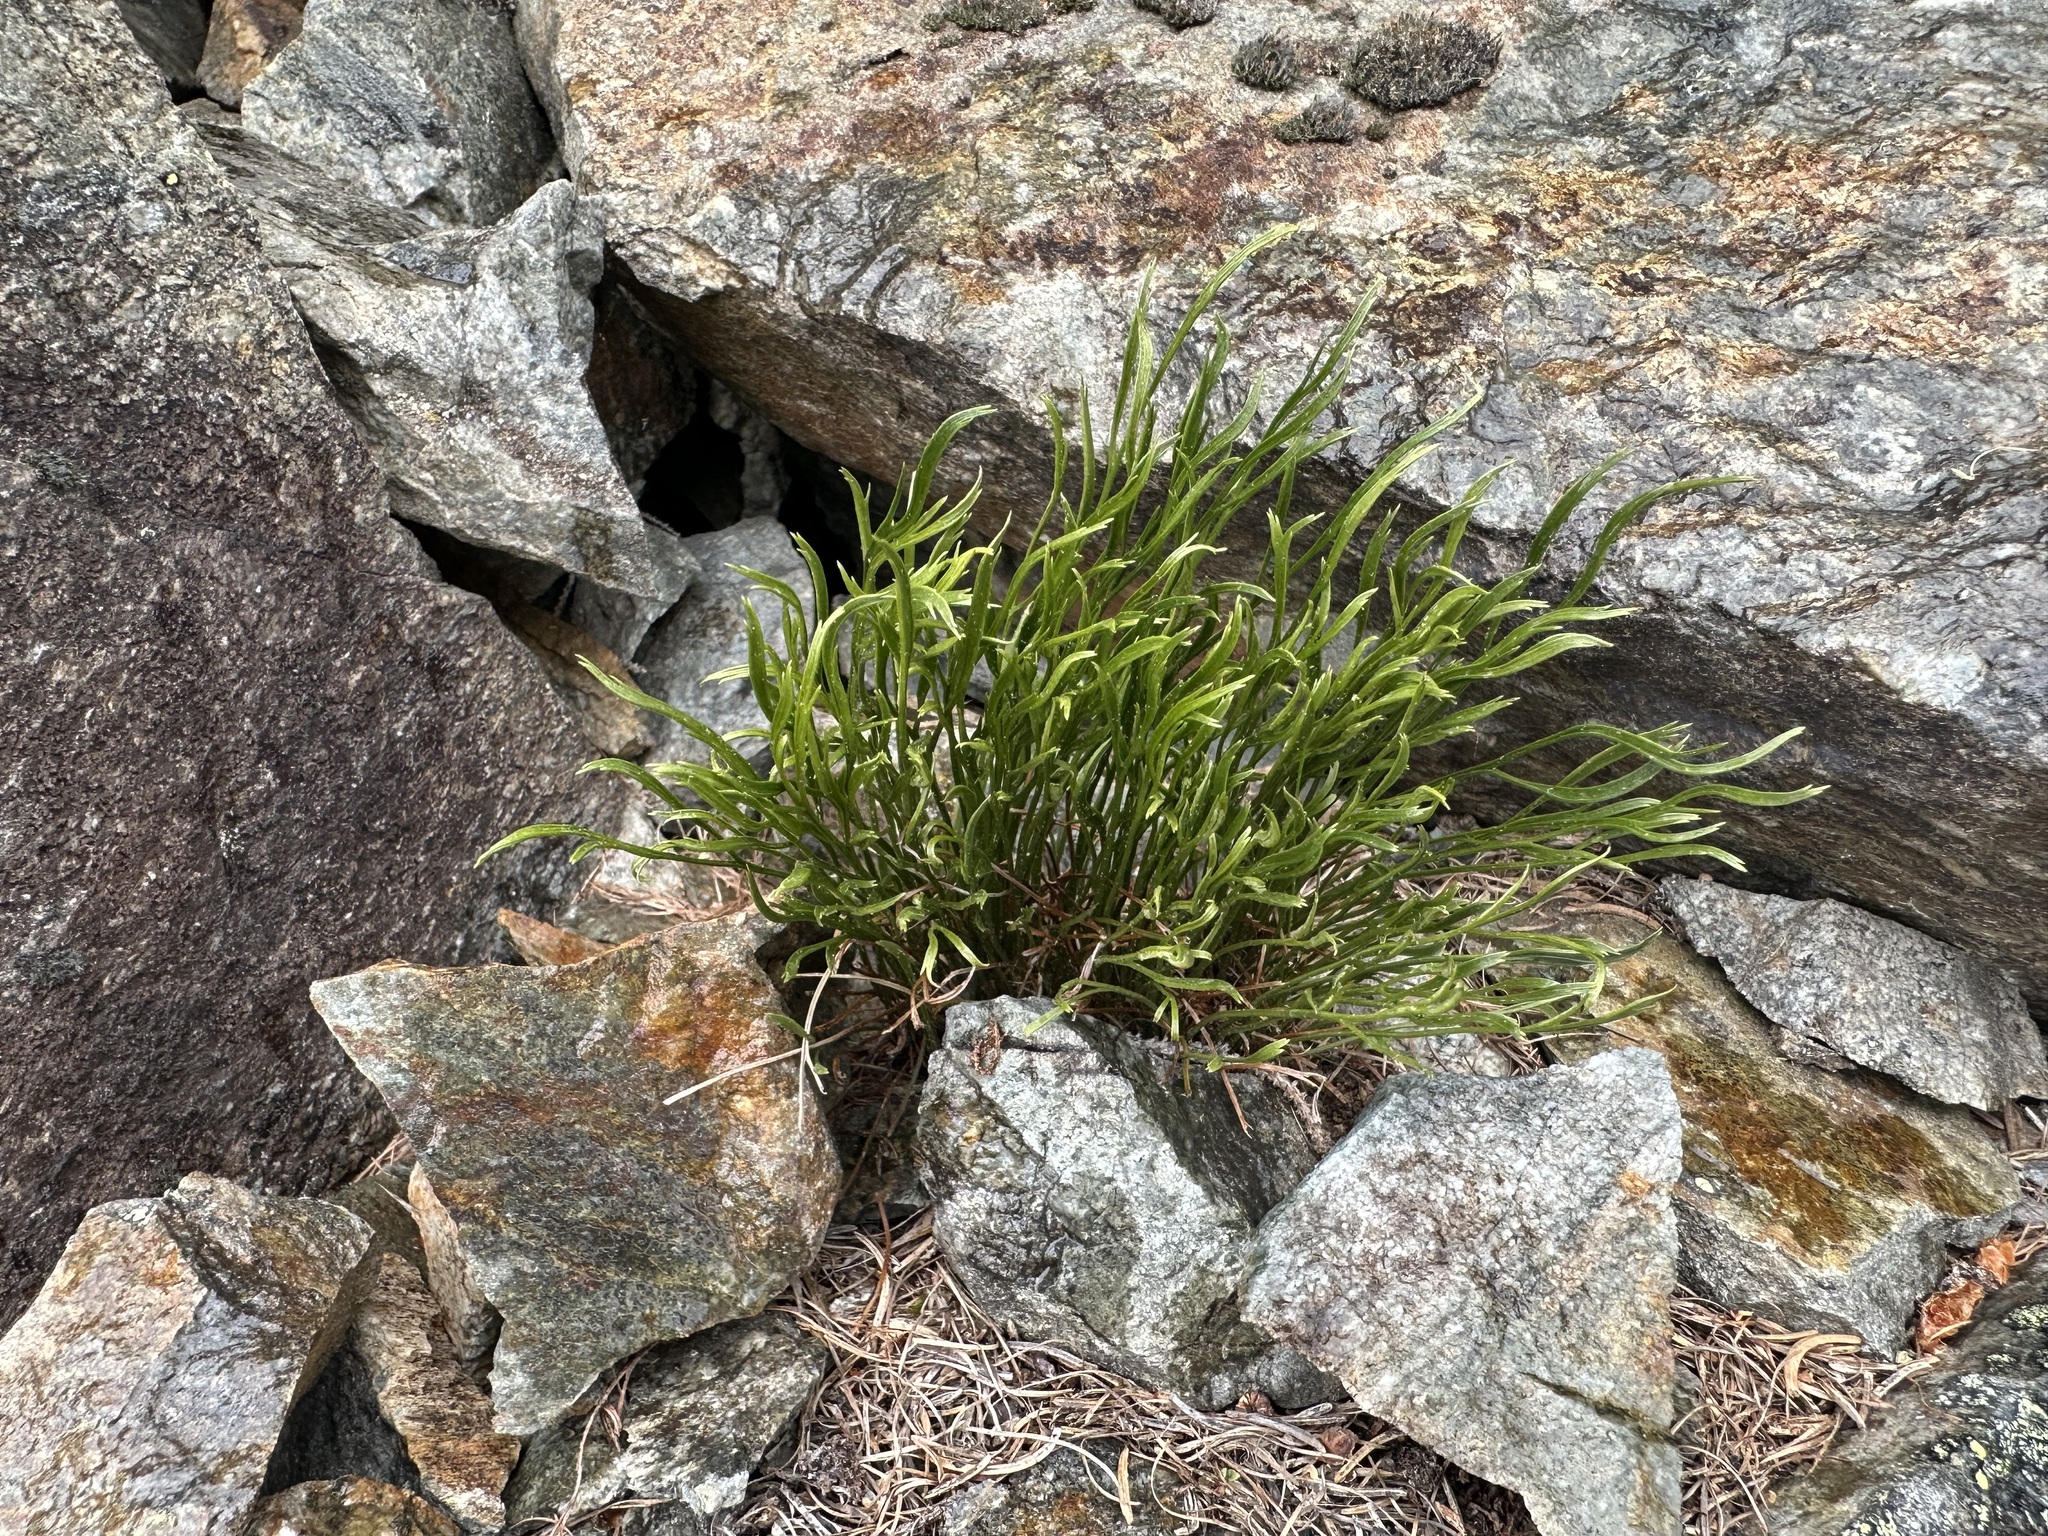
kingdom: Plantae
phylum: Tracheophyta
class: Polypodiopsida
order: Polypodiales
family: Aspleniaceae
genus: Asplenium
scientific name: Asplenium septentrionale
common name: Forked spleenwort
